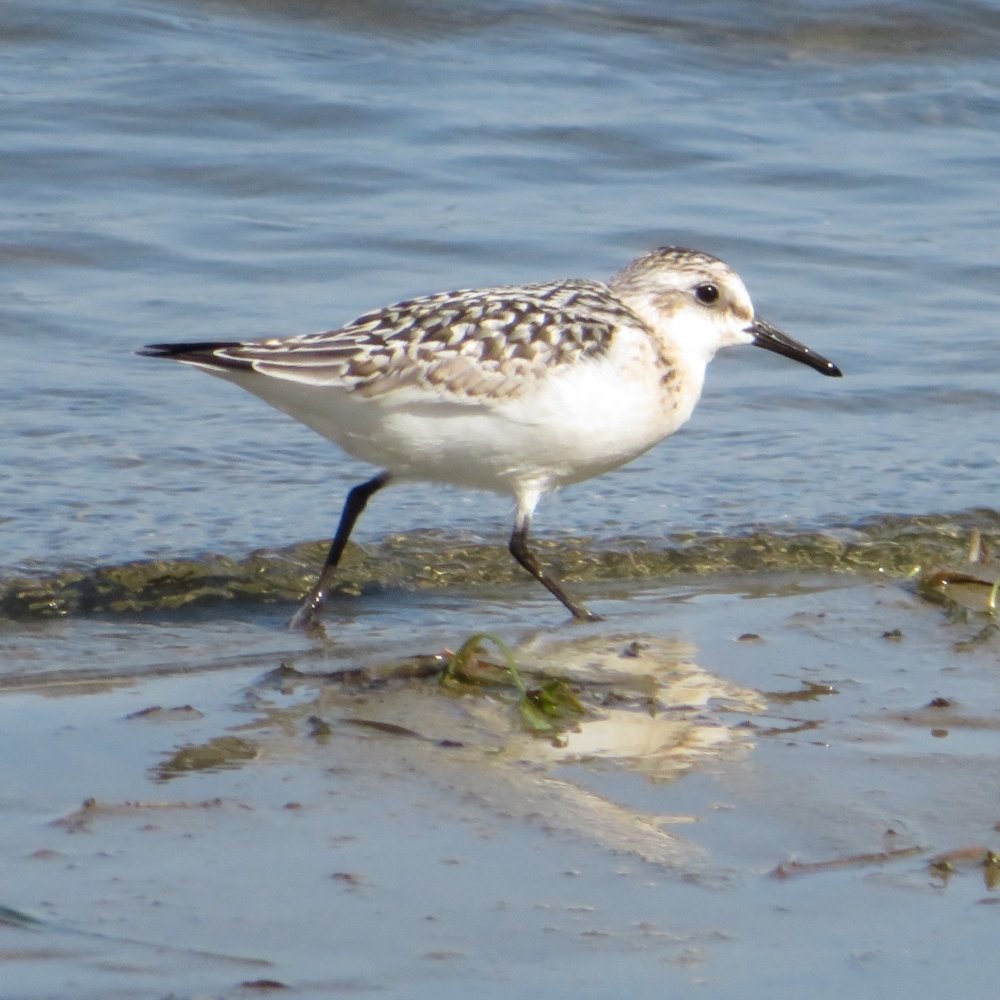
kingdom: Animalia
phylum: Chordata
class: Aves
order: Charadriiformes
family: Scolopacidae
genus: Calidris
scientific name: Calidris alba
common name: Sanderling
